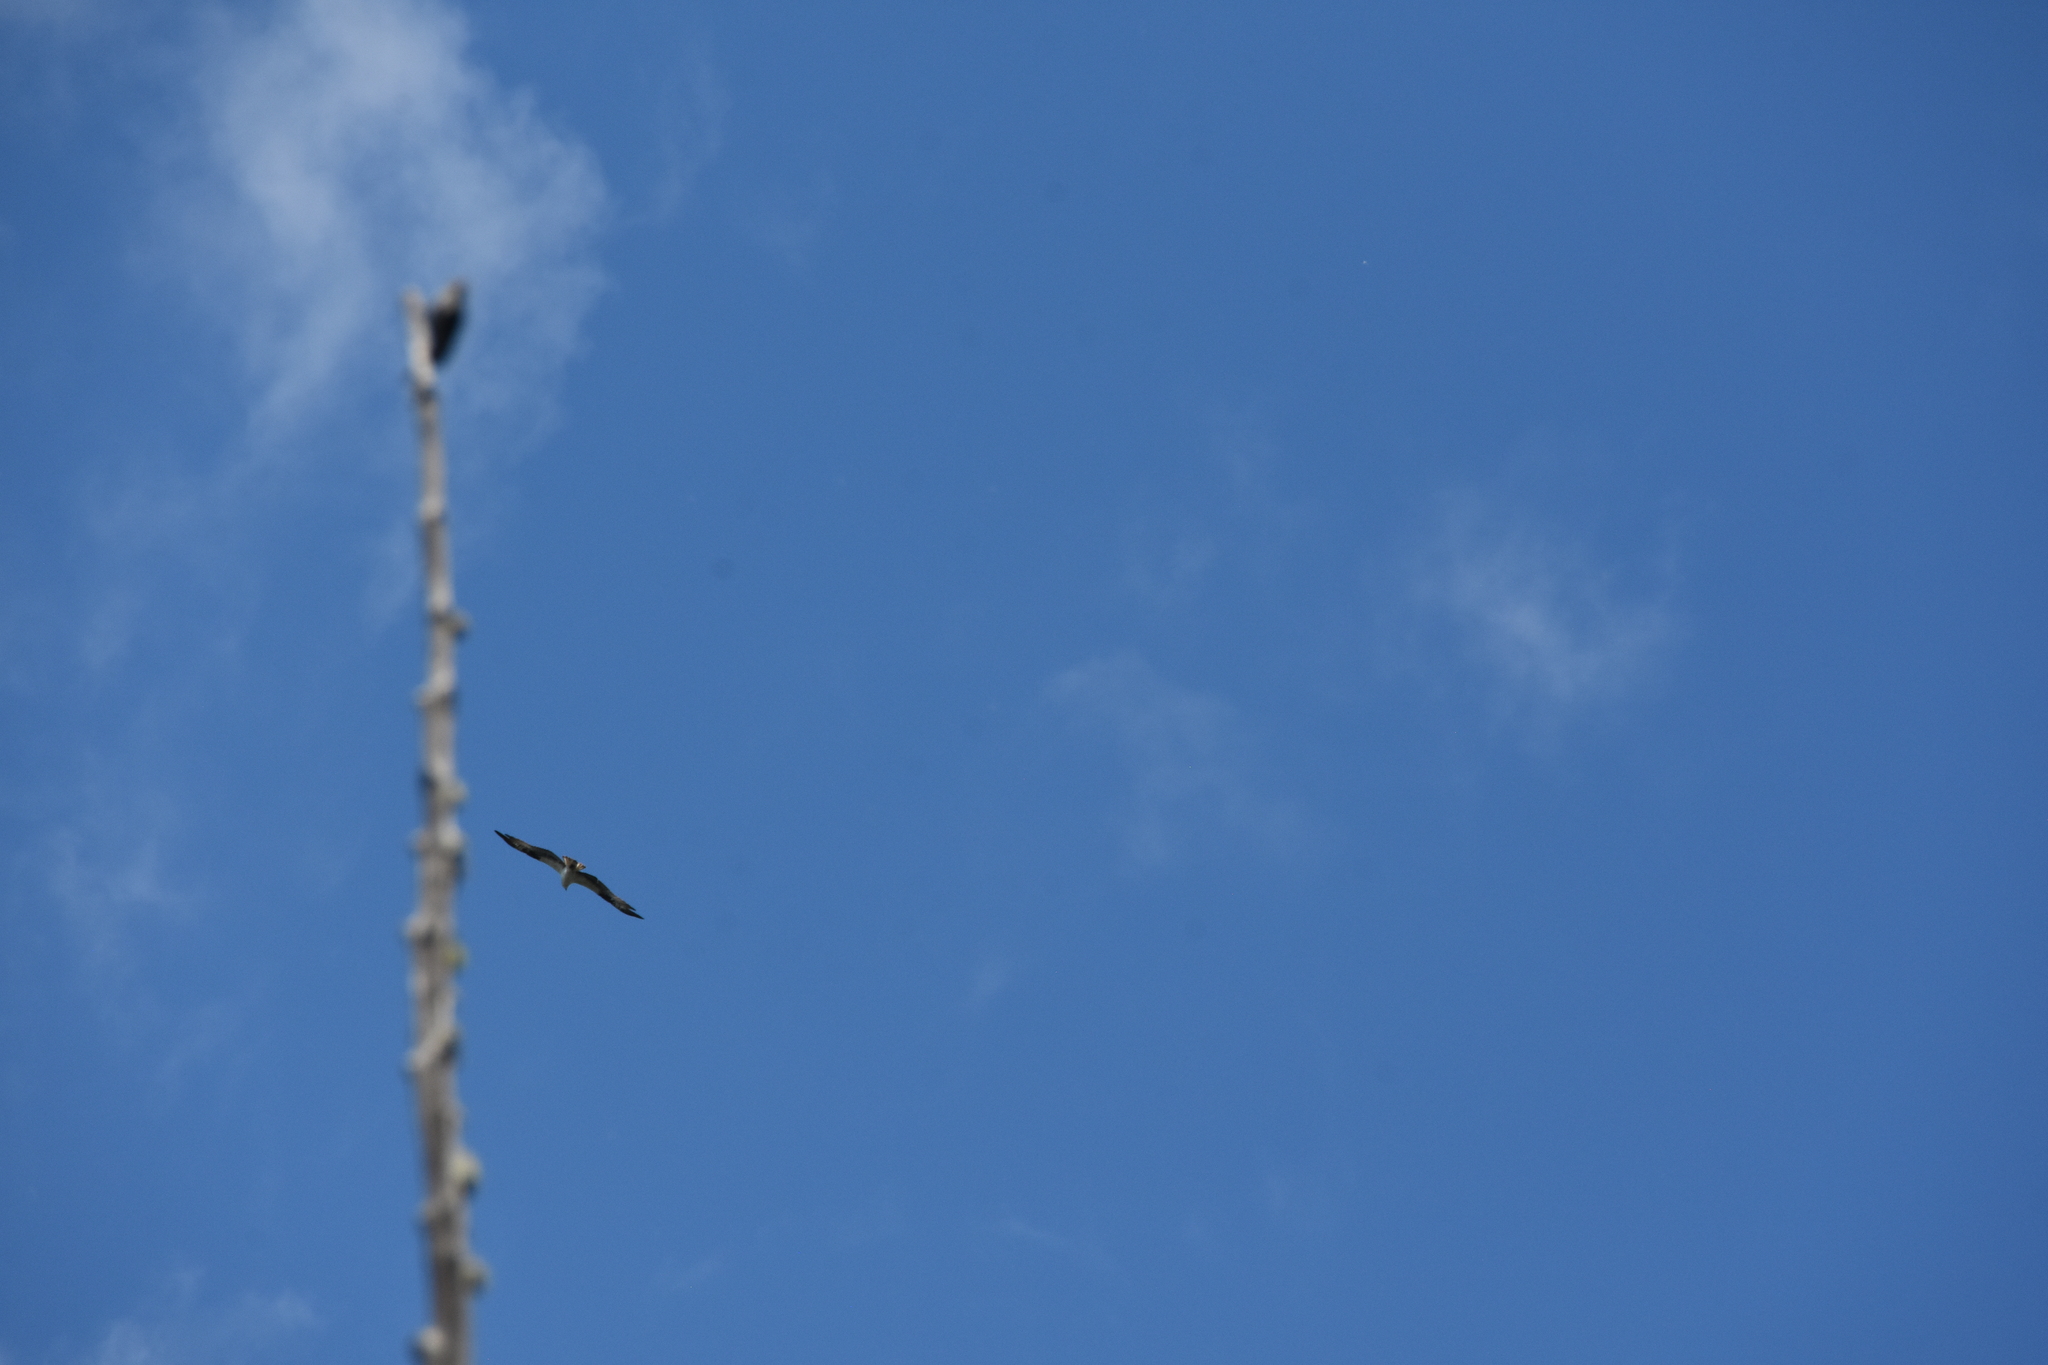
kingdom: Animalia
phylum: Chordata
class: Aves
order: Accipitriformes
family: Pandionidae
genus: Pandion
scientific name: Pandion haliaetus
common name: Osprey
